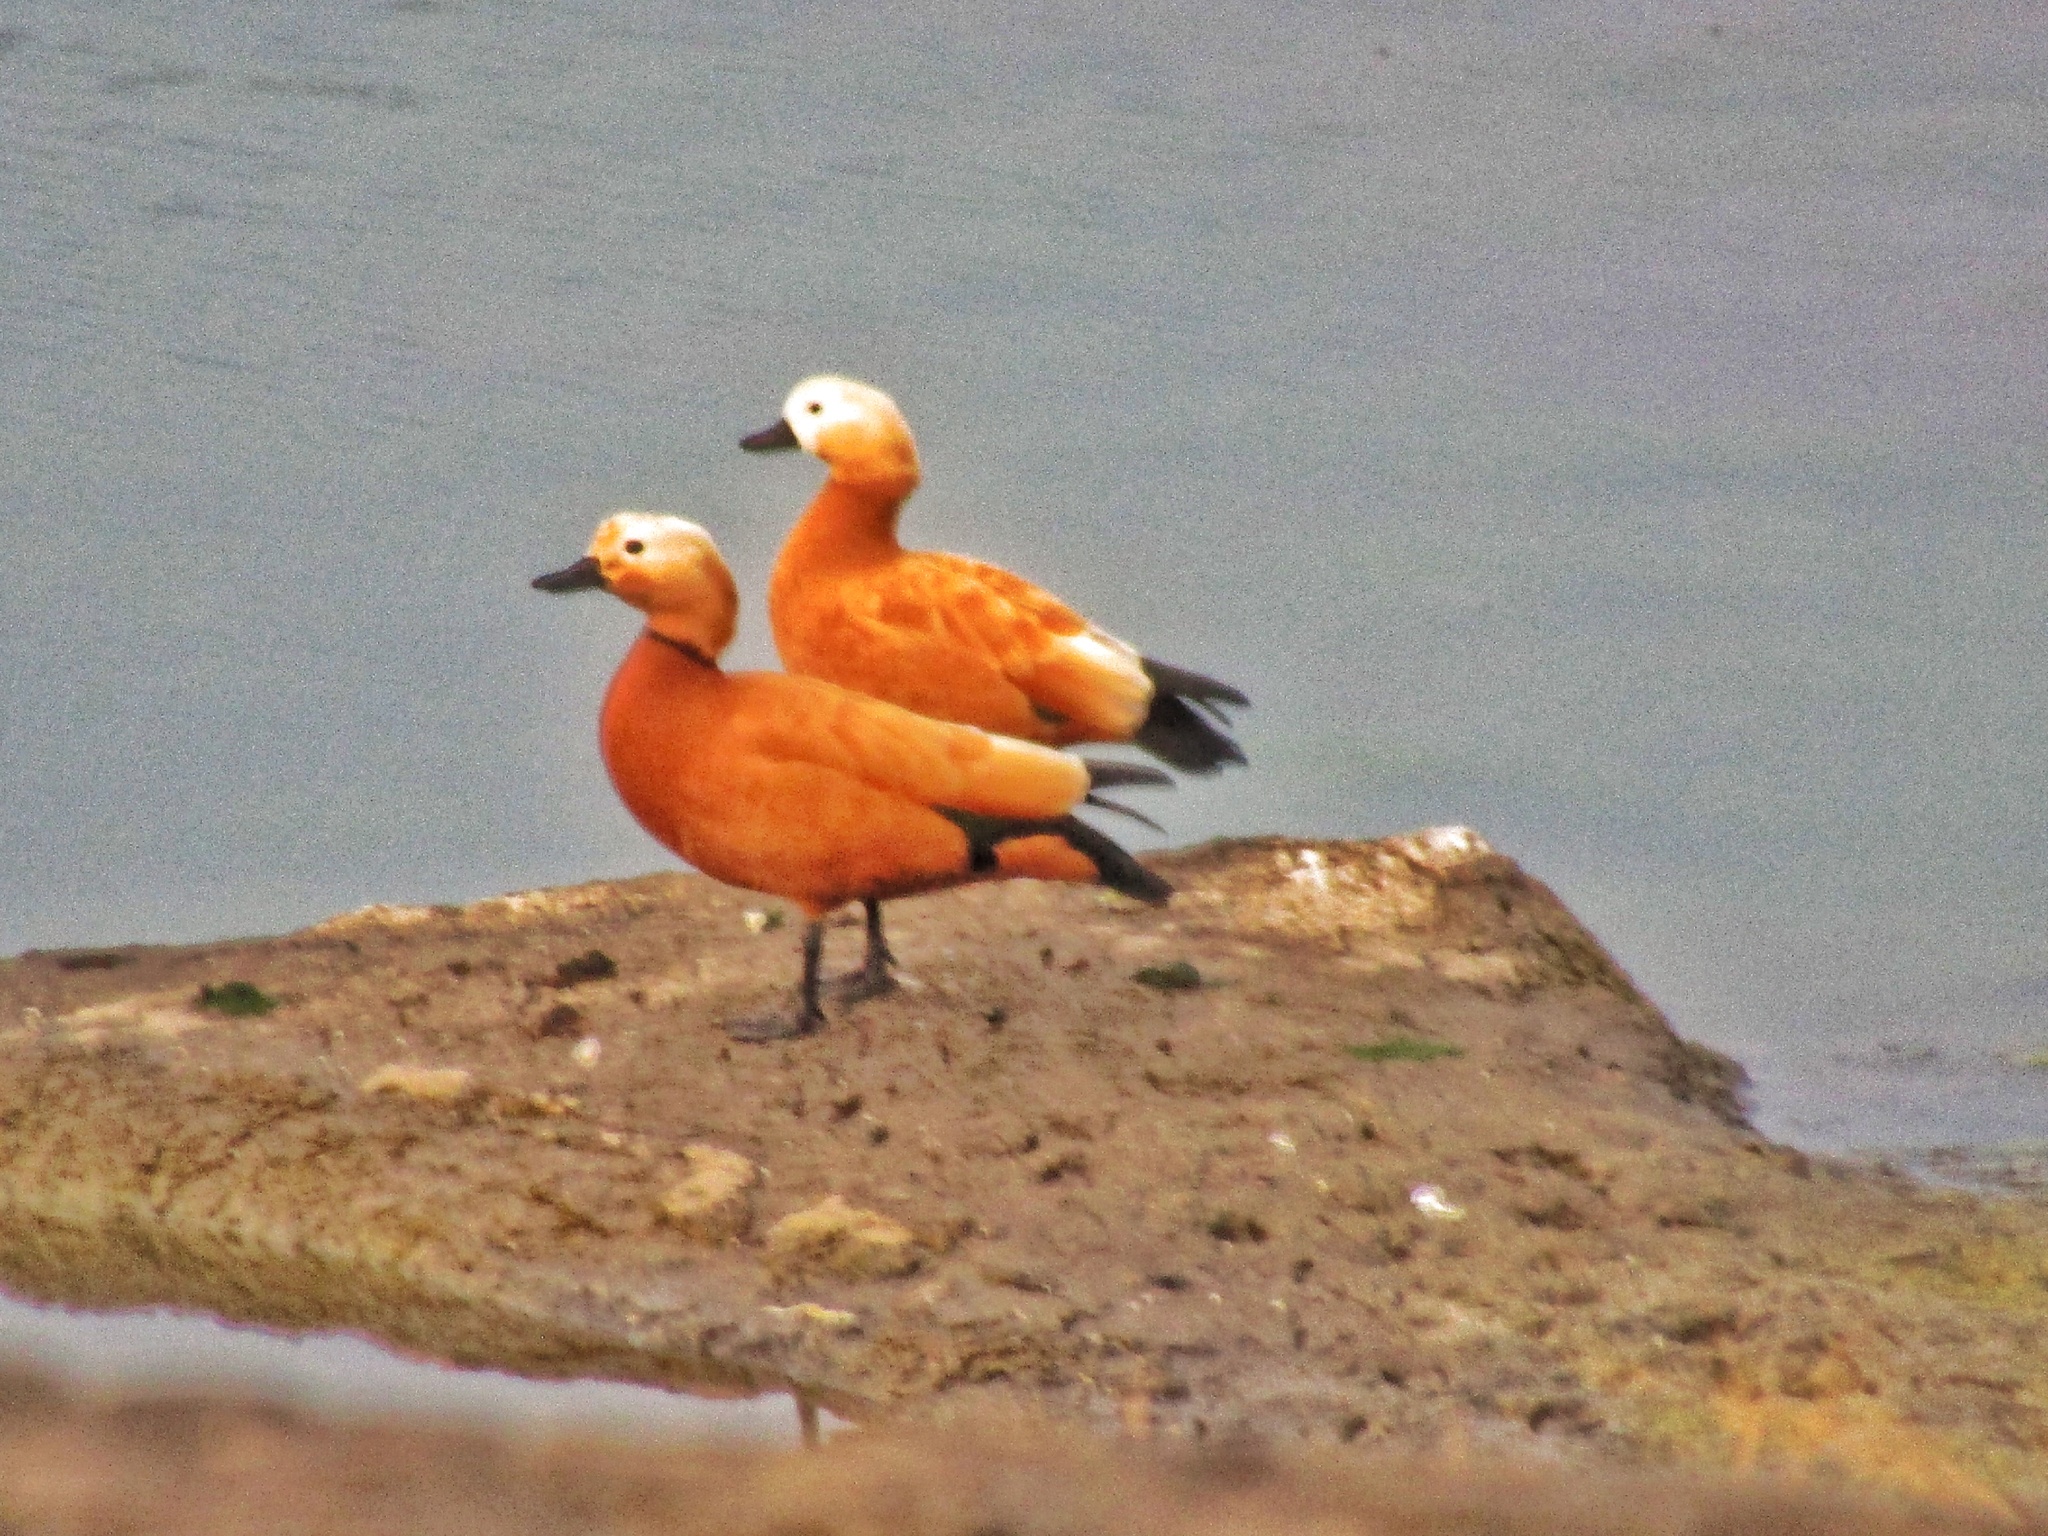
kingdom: Animalia
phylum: Chordata
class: Aves
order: Anseriformes
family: Anatidae
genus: Tadorna
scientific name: Tadorna ferruginea
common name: Ruddy shelduck
